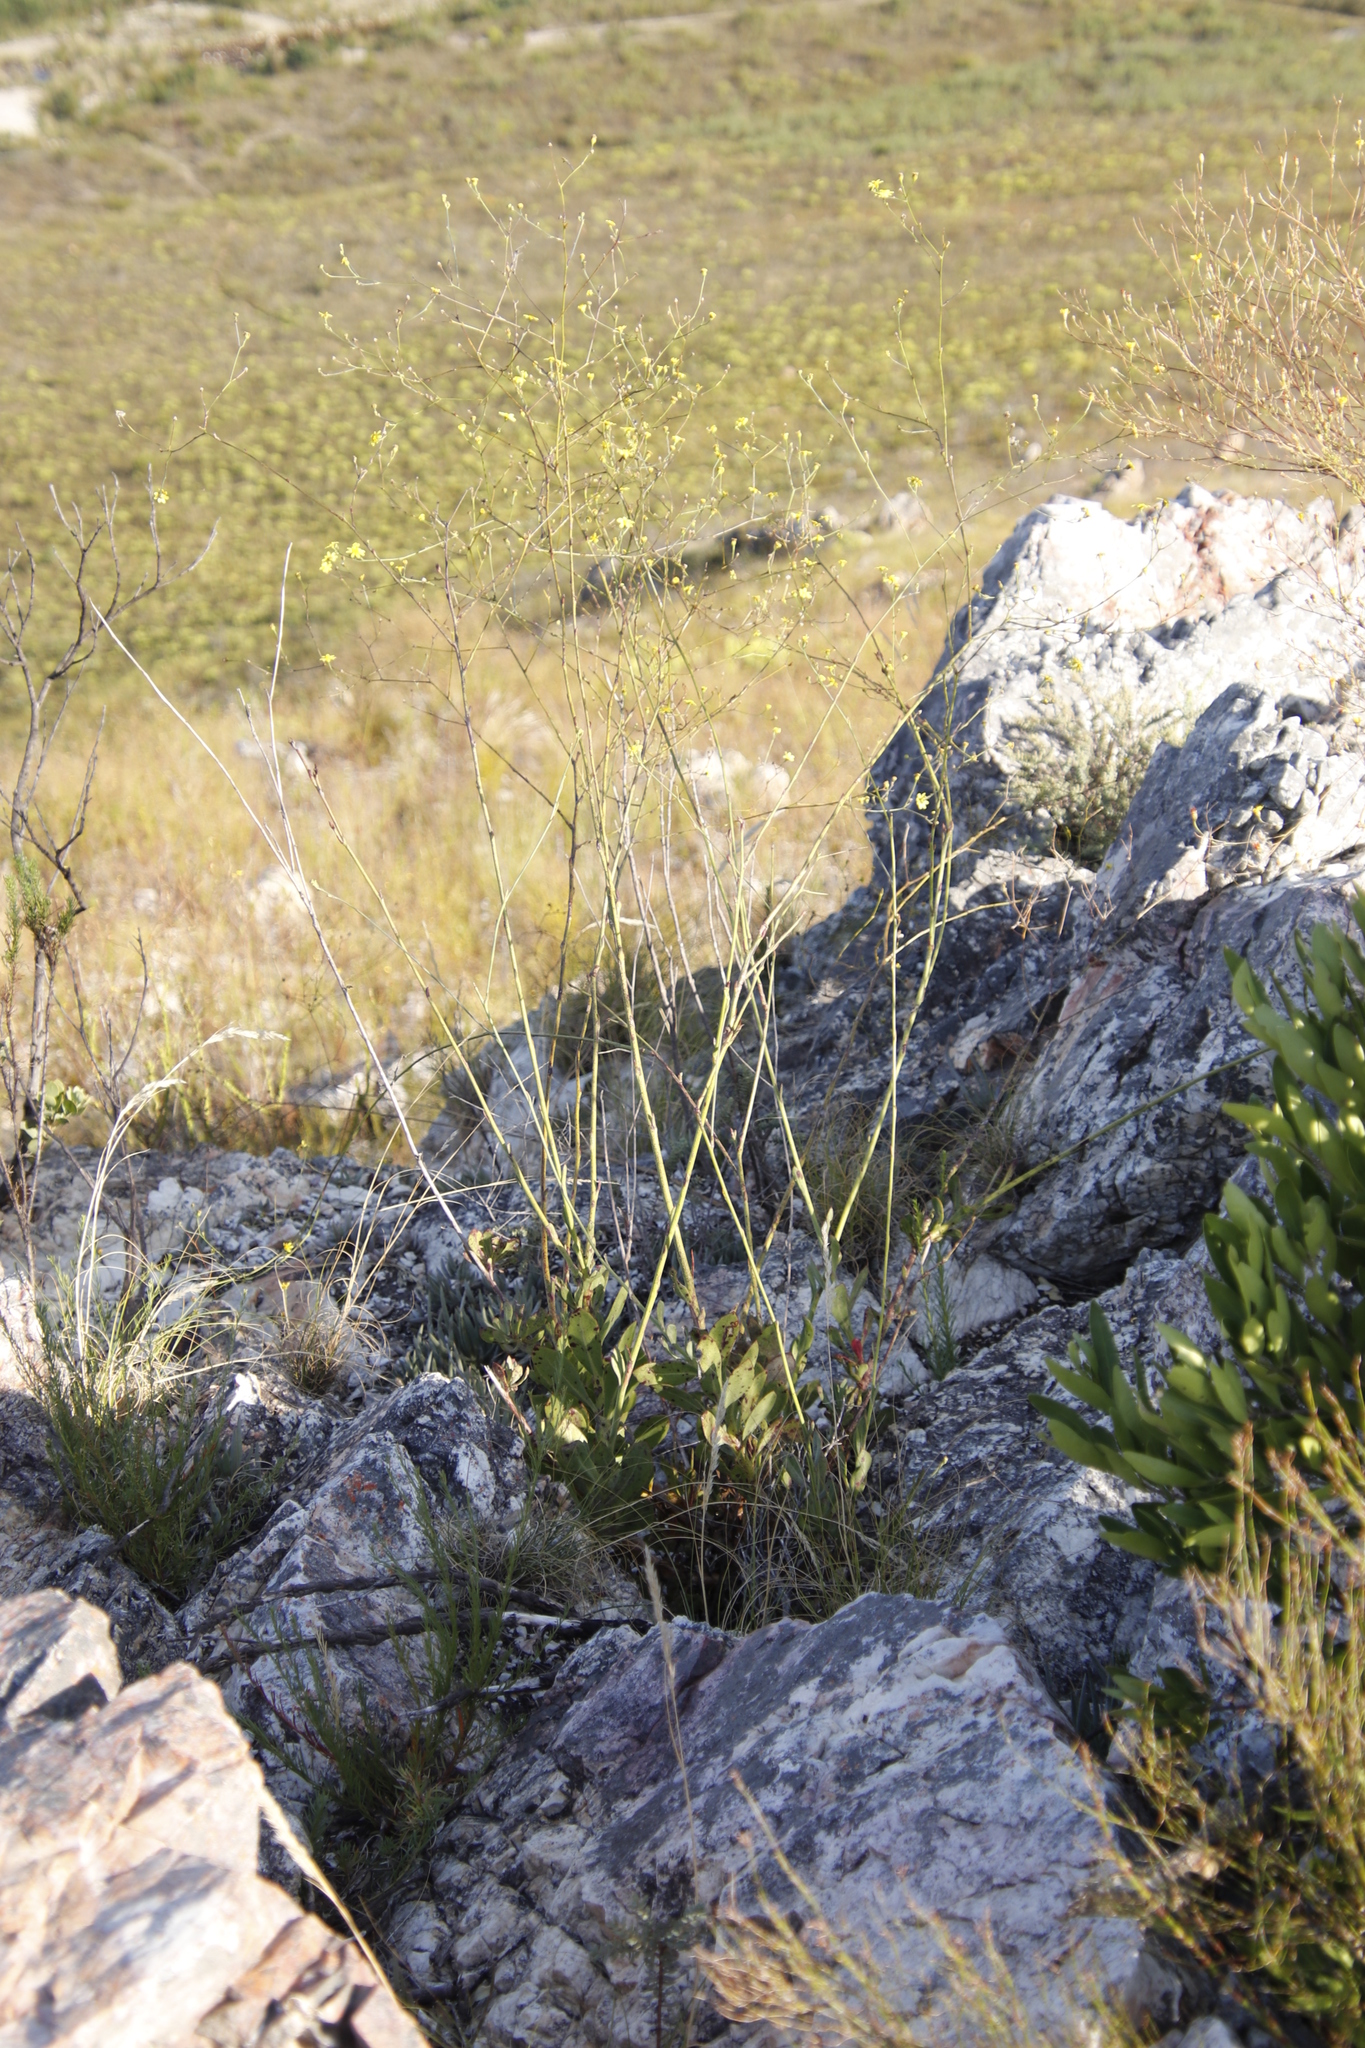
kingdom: Plantae
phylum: Tracheophyta
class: Magnoliopsida
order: Asterales
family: Asteraceae
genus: Othonna
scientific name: Othonna quinquedentata
